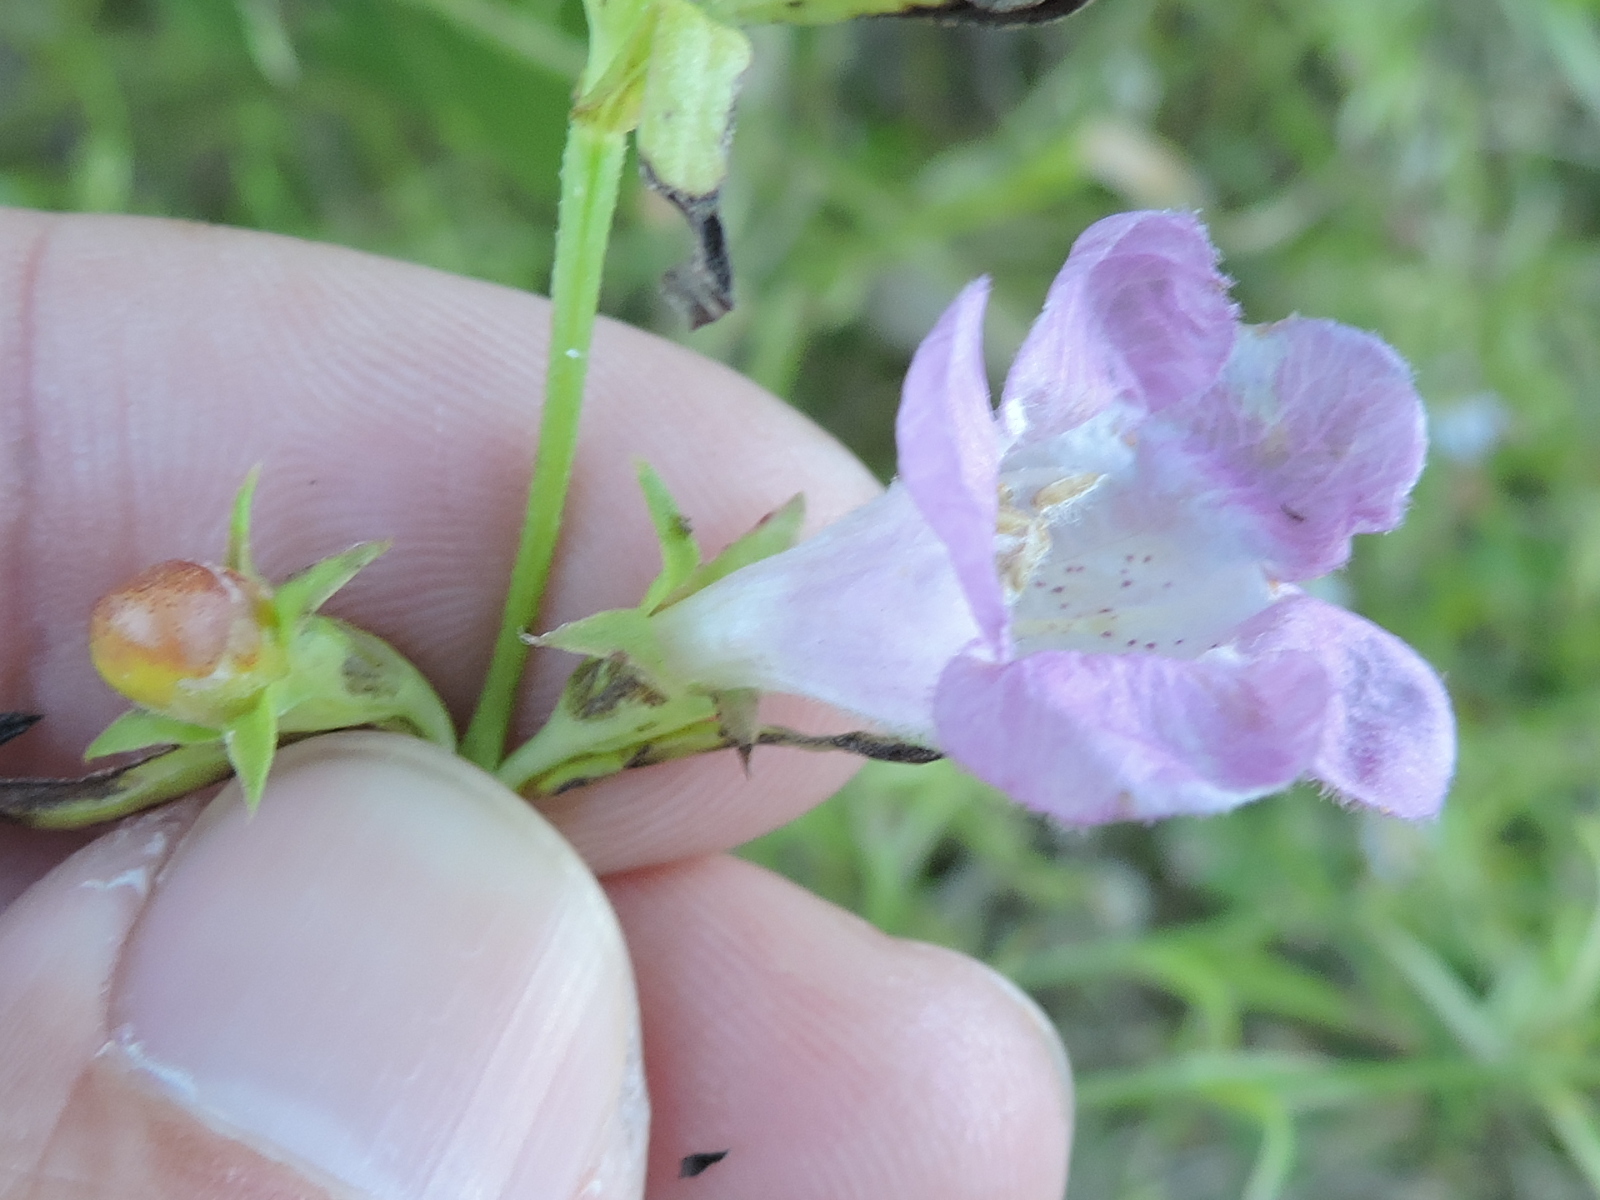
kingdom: Plantae
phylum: Tracheophyta
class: Magnoliopsida
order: Lamiales
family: Orobanchaceae
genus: Agalinis
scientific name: Agalinis heterophylla
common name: Prairie agalinis
